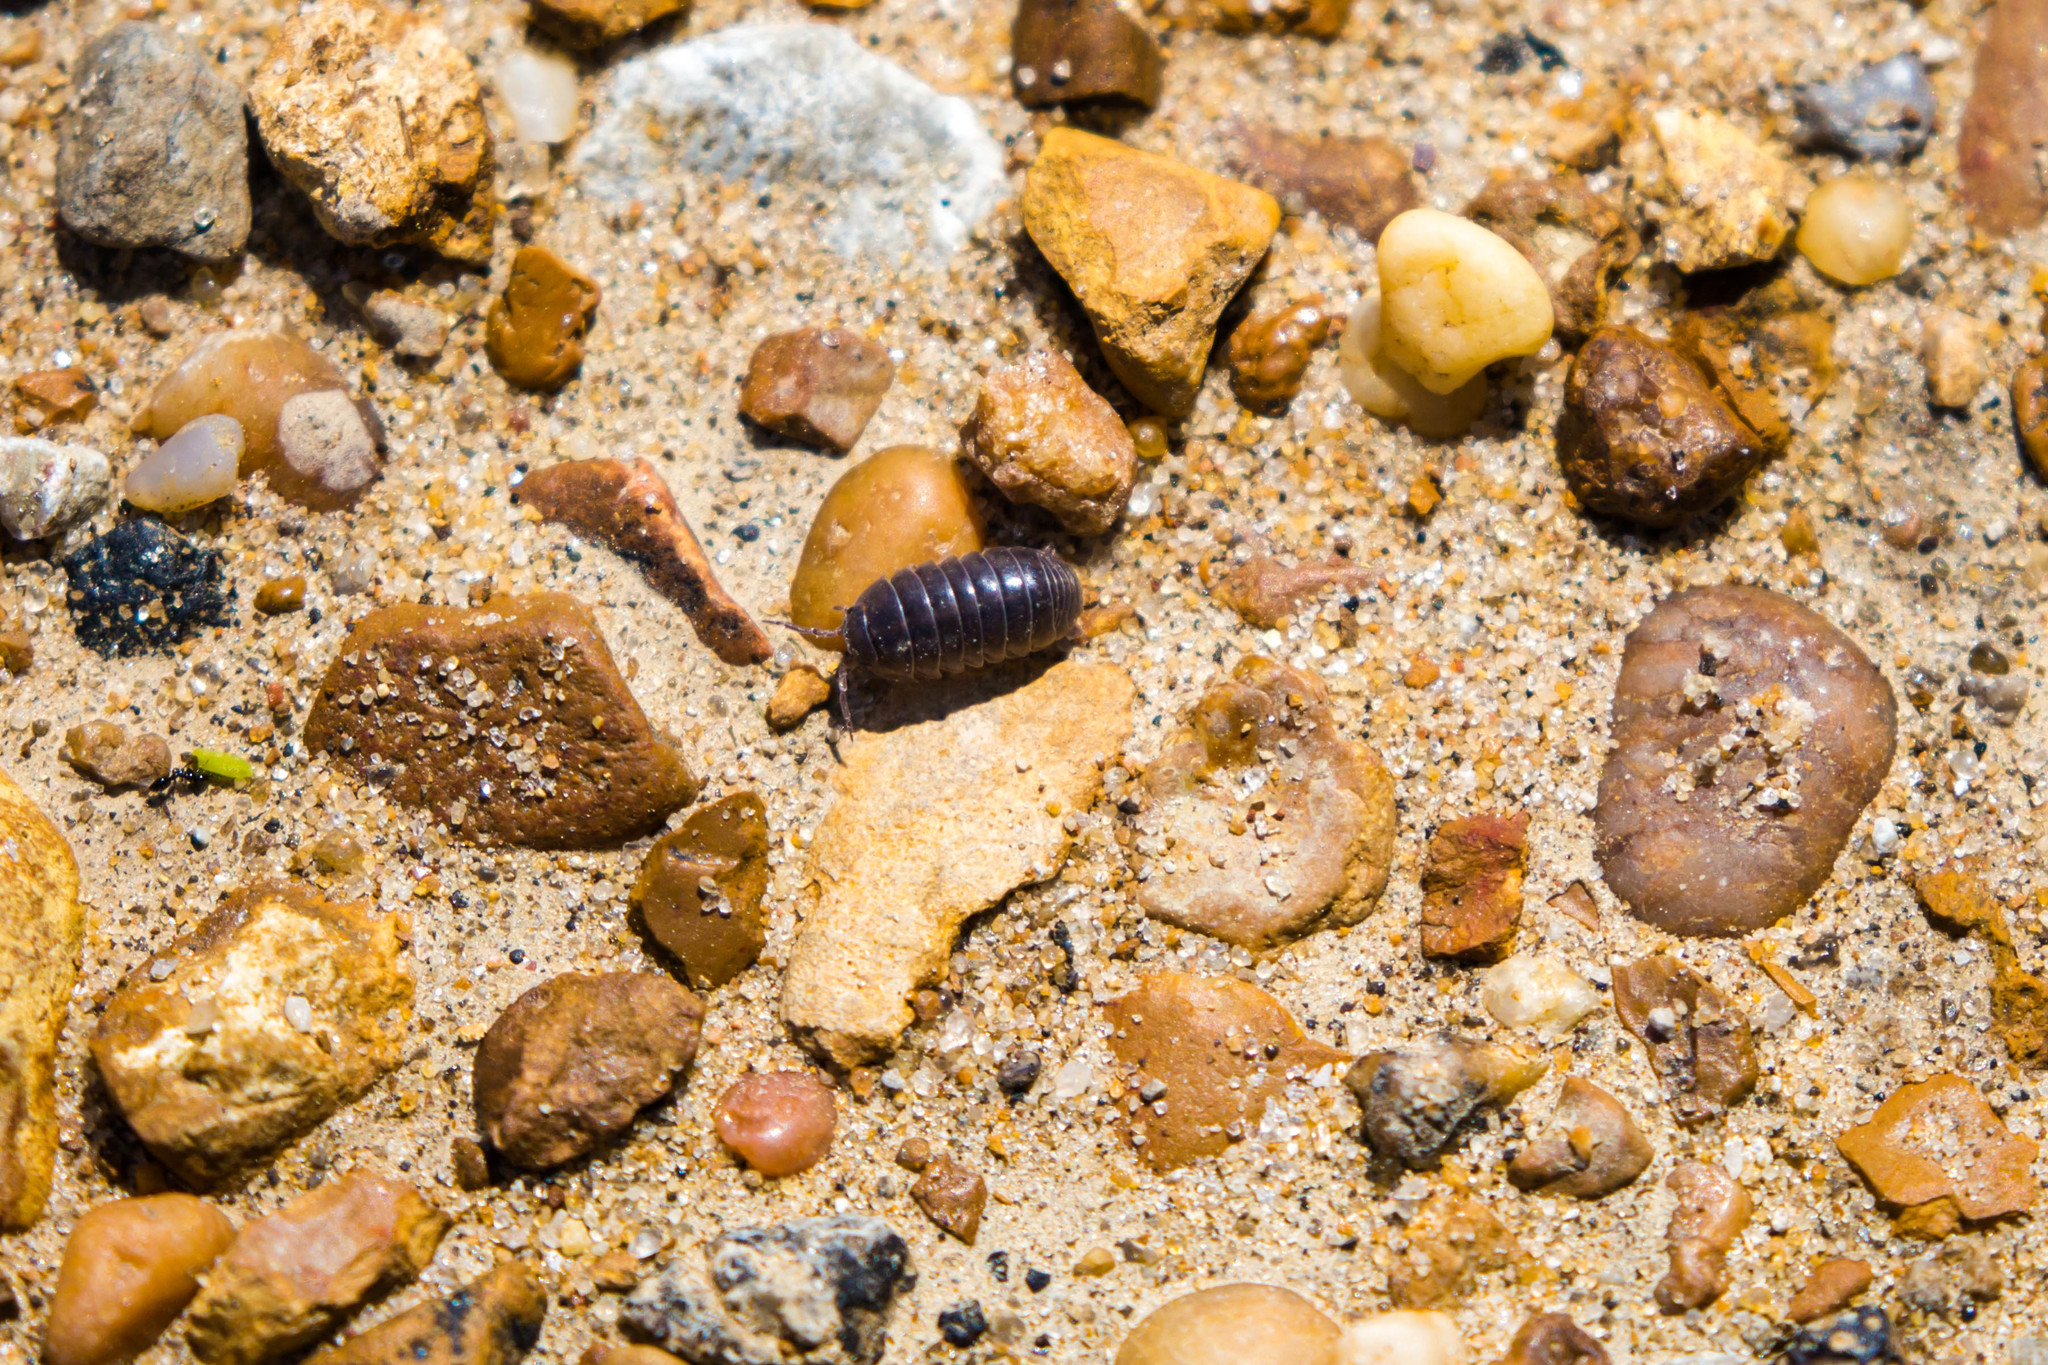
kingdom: Animalia
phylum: Arthropoda
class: Malacostraca
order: Isopoda
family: Armadillidiidae
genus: Armadillidium
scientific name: Armadillidium vulgare
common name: Common pill woodlouse
